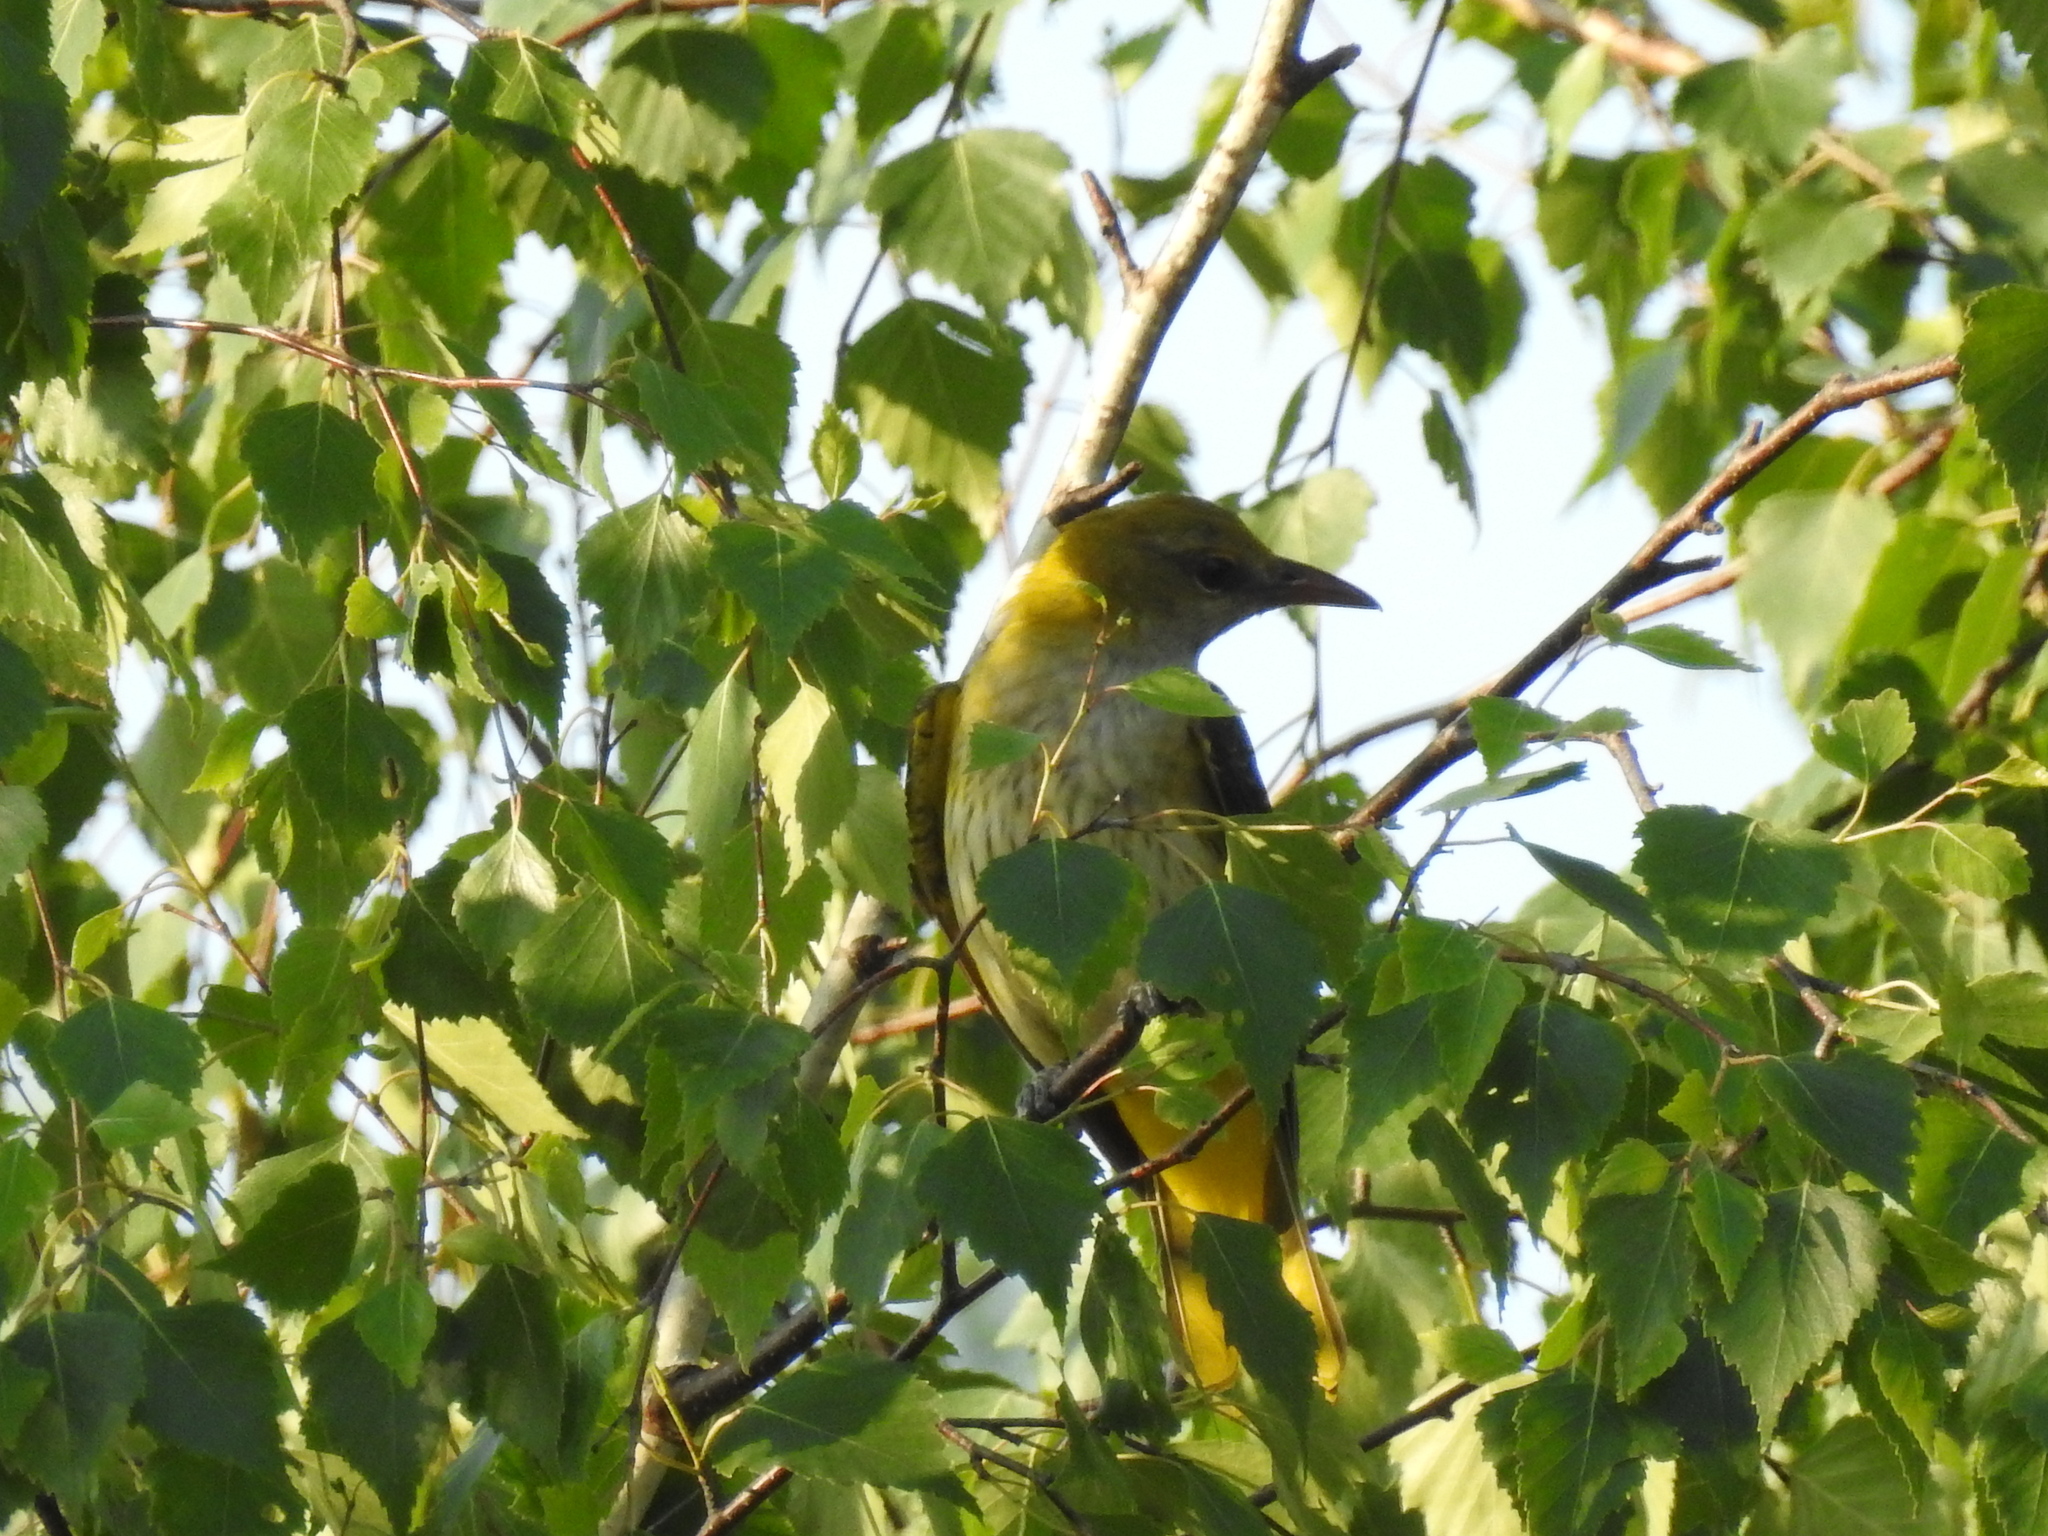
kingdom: Animalia
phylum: Chordata
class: Aves
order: Passeriformes
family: Oriolidae
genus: Oriolus
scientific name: Oriolus oriolus
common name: Eurasian golden oriole
